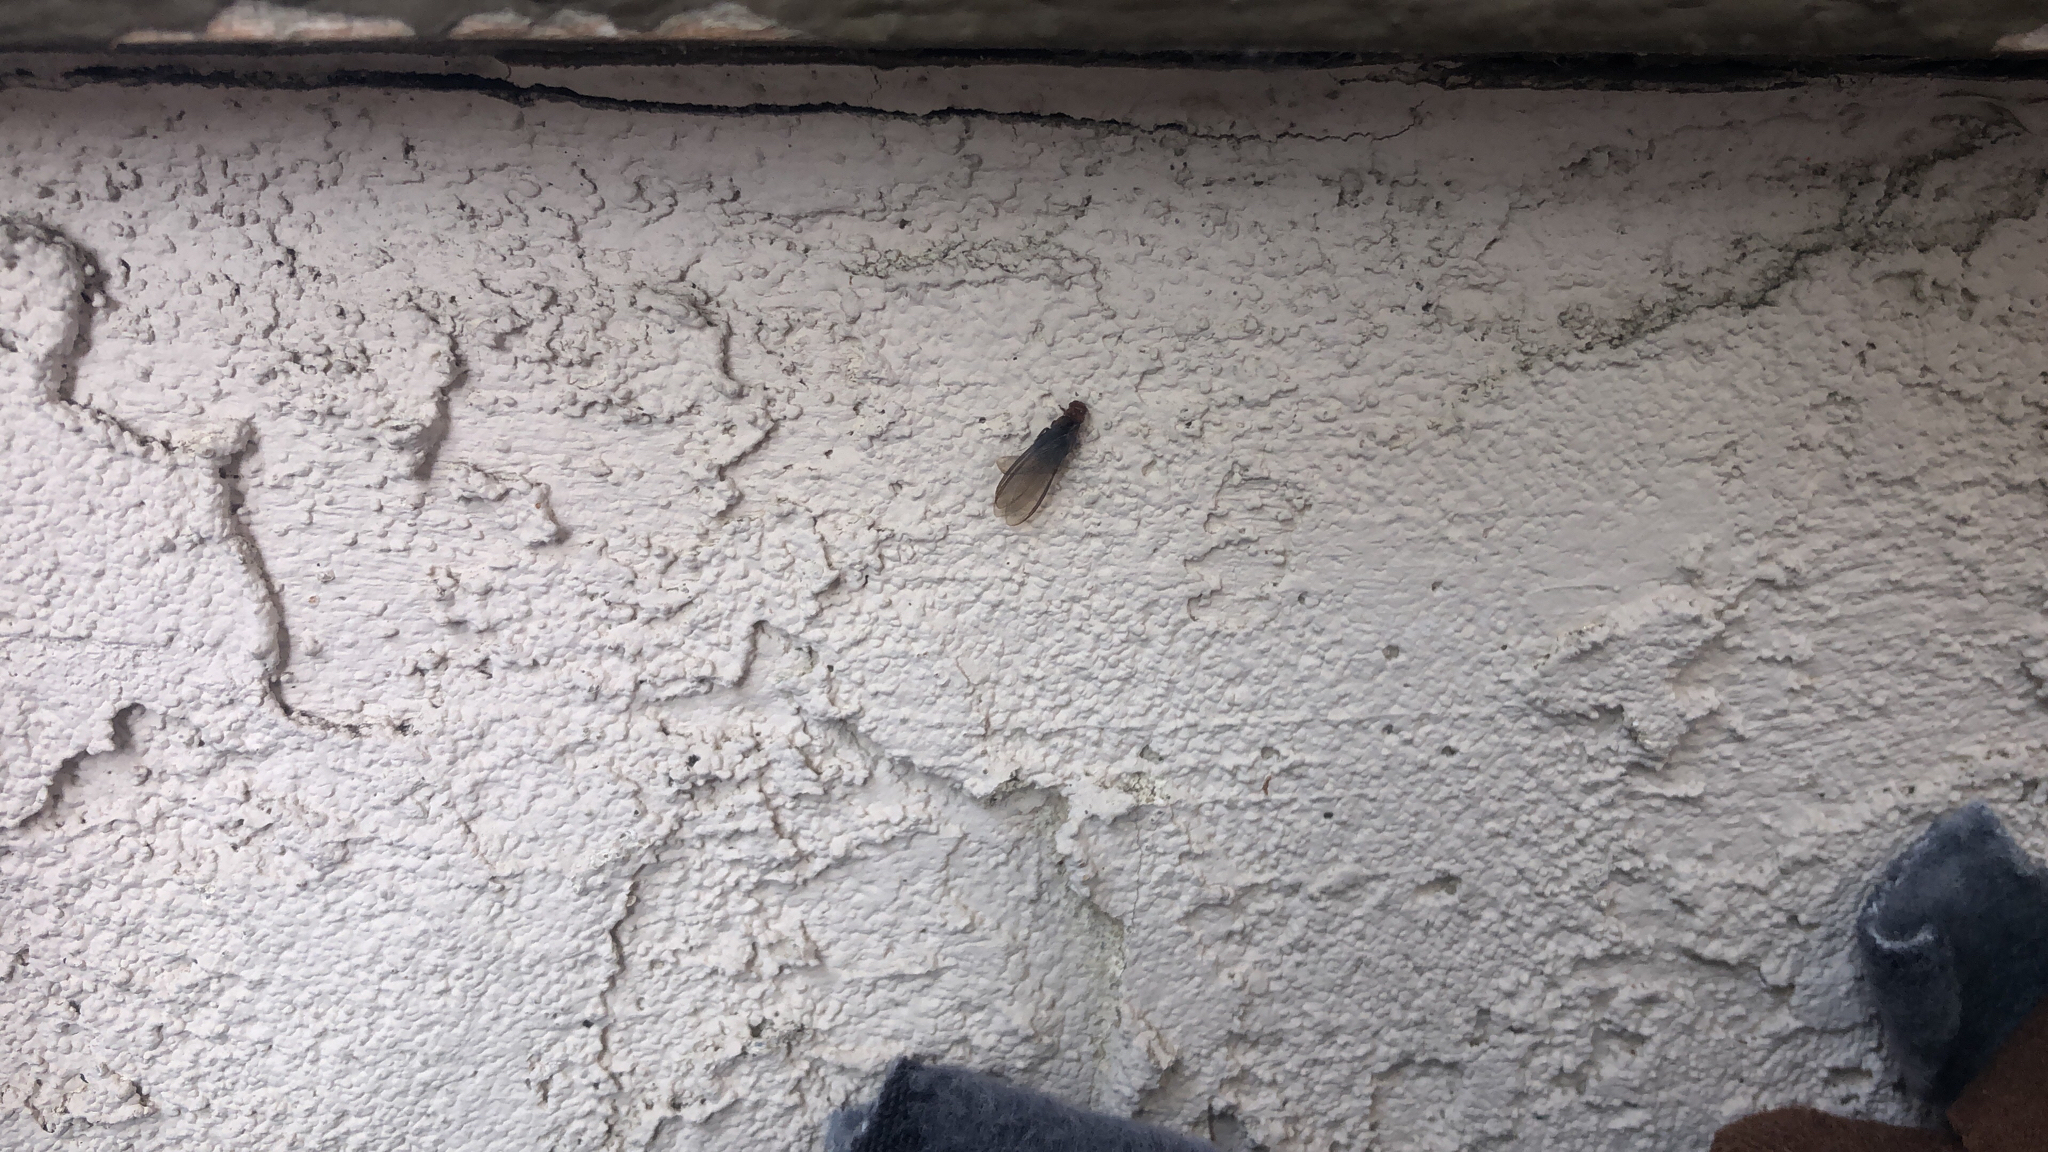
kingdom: Animalia
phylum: Arthropoda
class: Insecta
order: Blattodea
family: Kalotermitidae
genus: Incisitermes
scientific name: Incisitermes minor
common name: Termite
